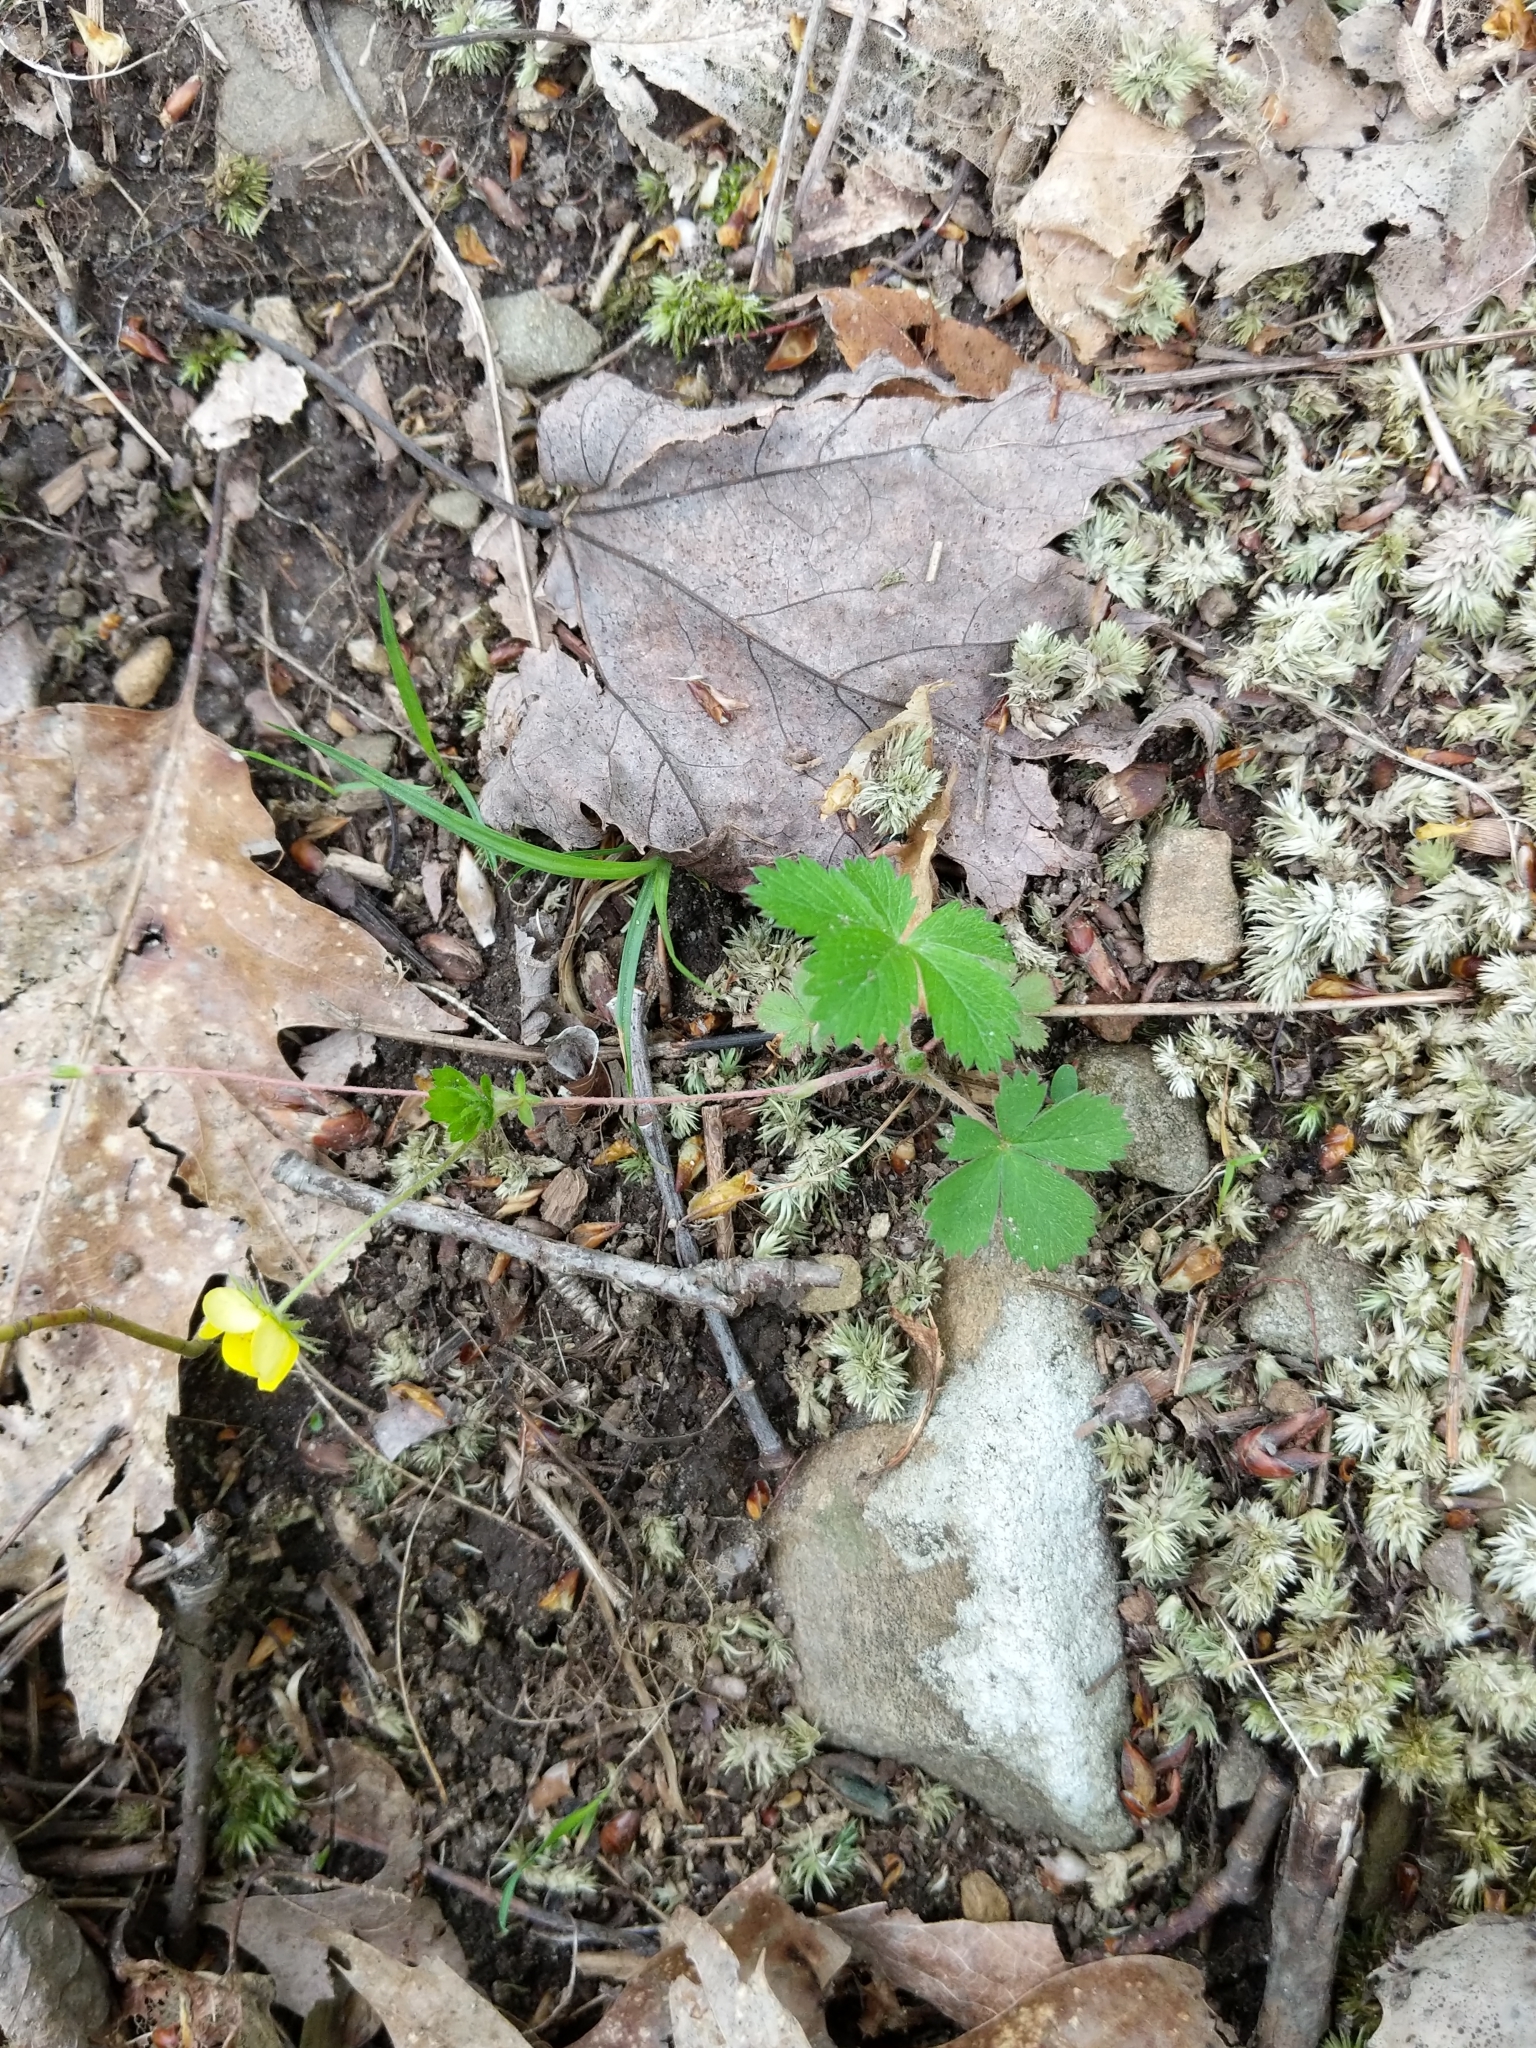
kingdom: Plantae
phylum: Tracheophyta
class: Magnoliopsida
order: Rosales
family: Rosaceae
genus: Potentilla
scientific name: Potentilla canadensis
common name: Canada cinquefoil
